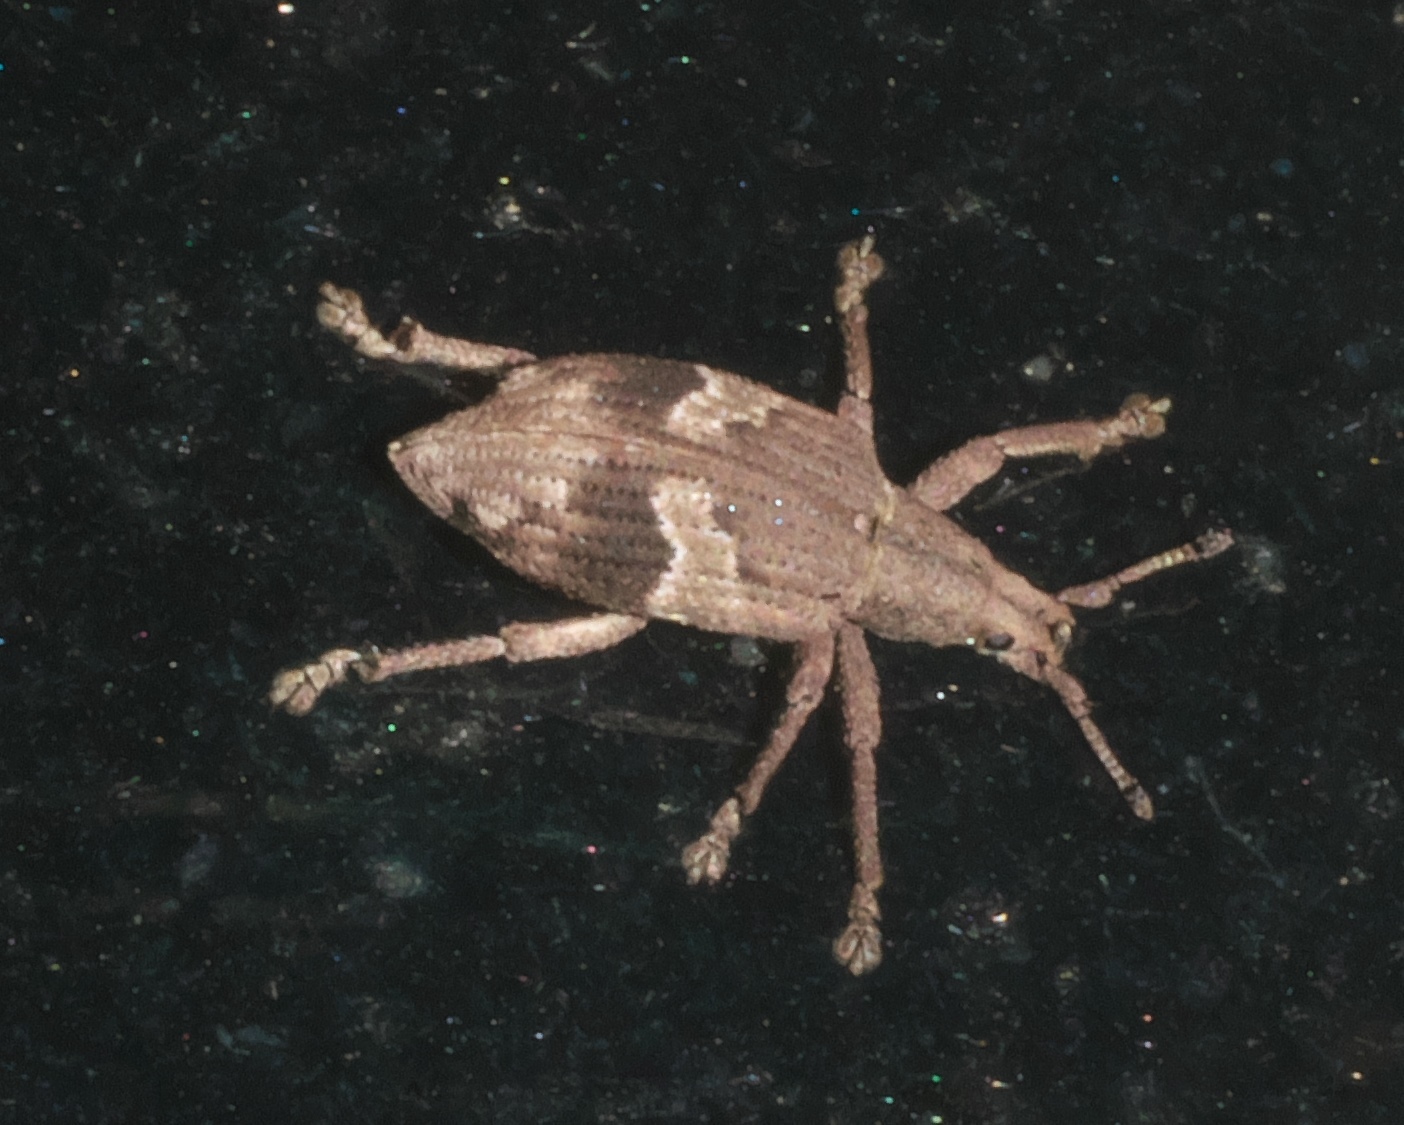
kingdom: Animalia
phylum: Arthropoda
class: Insecta
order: Coleoptera
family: Curculionidae
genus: Brachystylus
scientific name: Brachystylus
